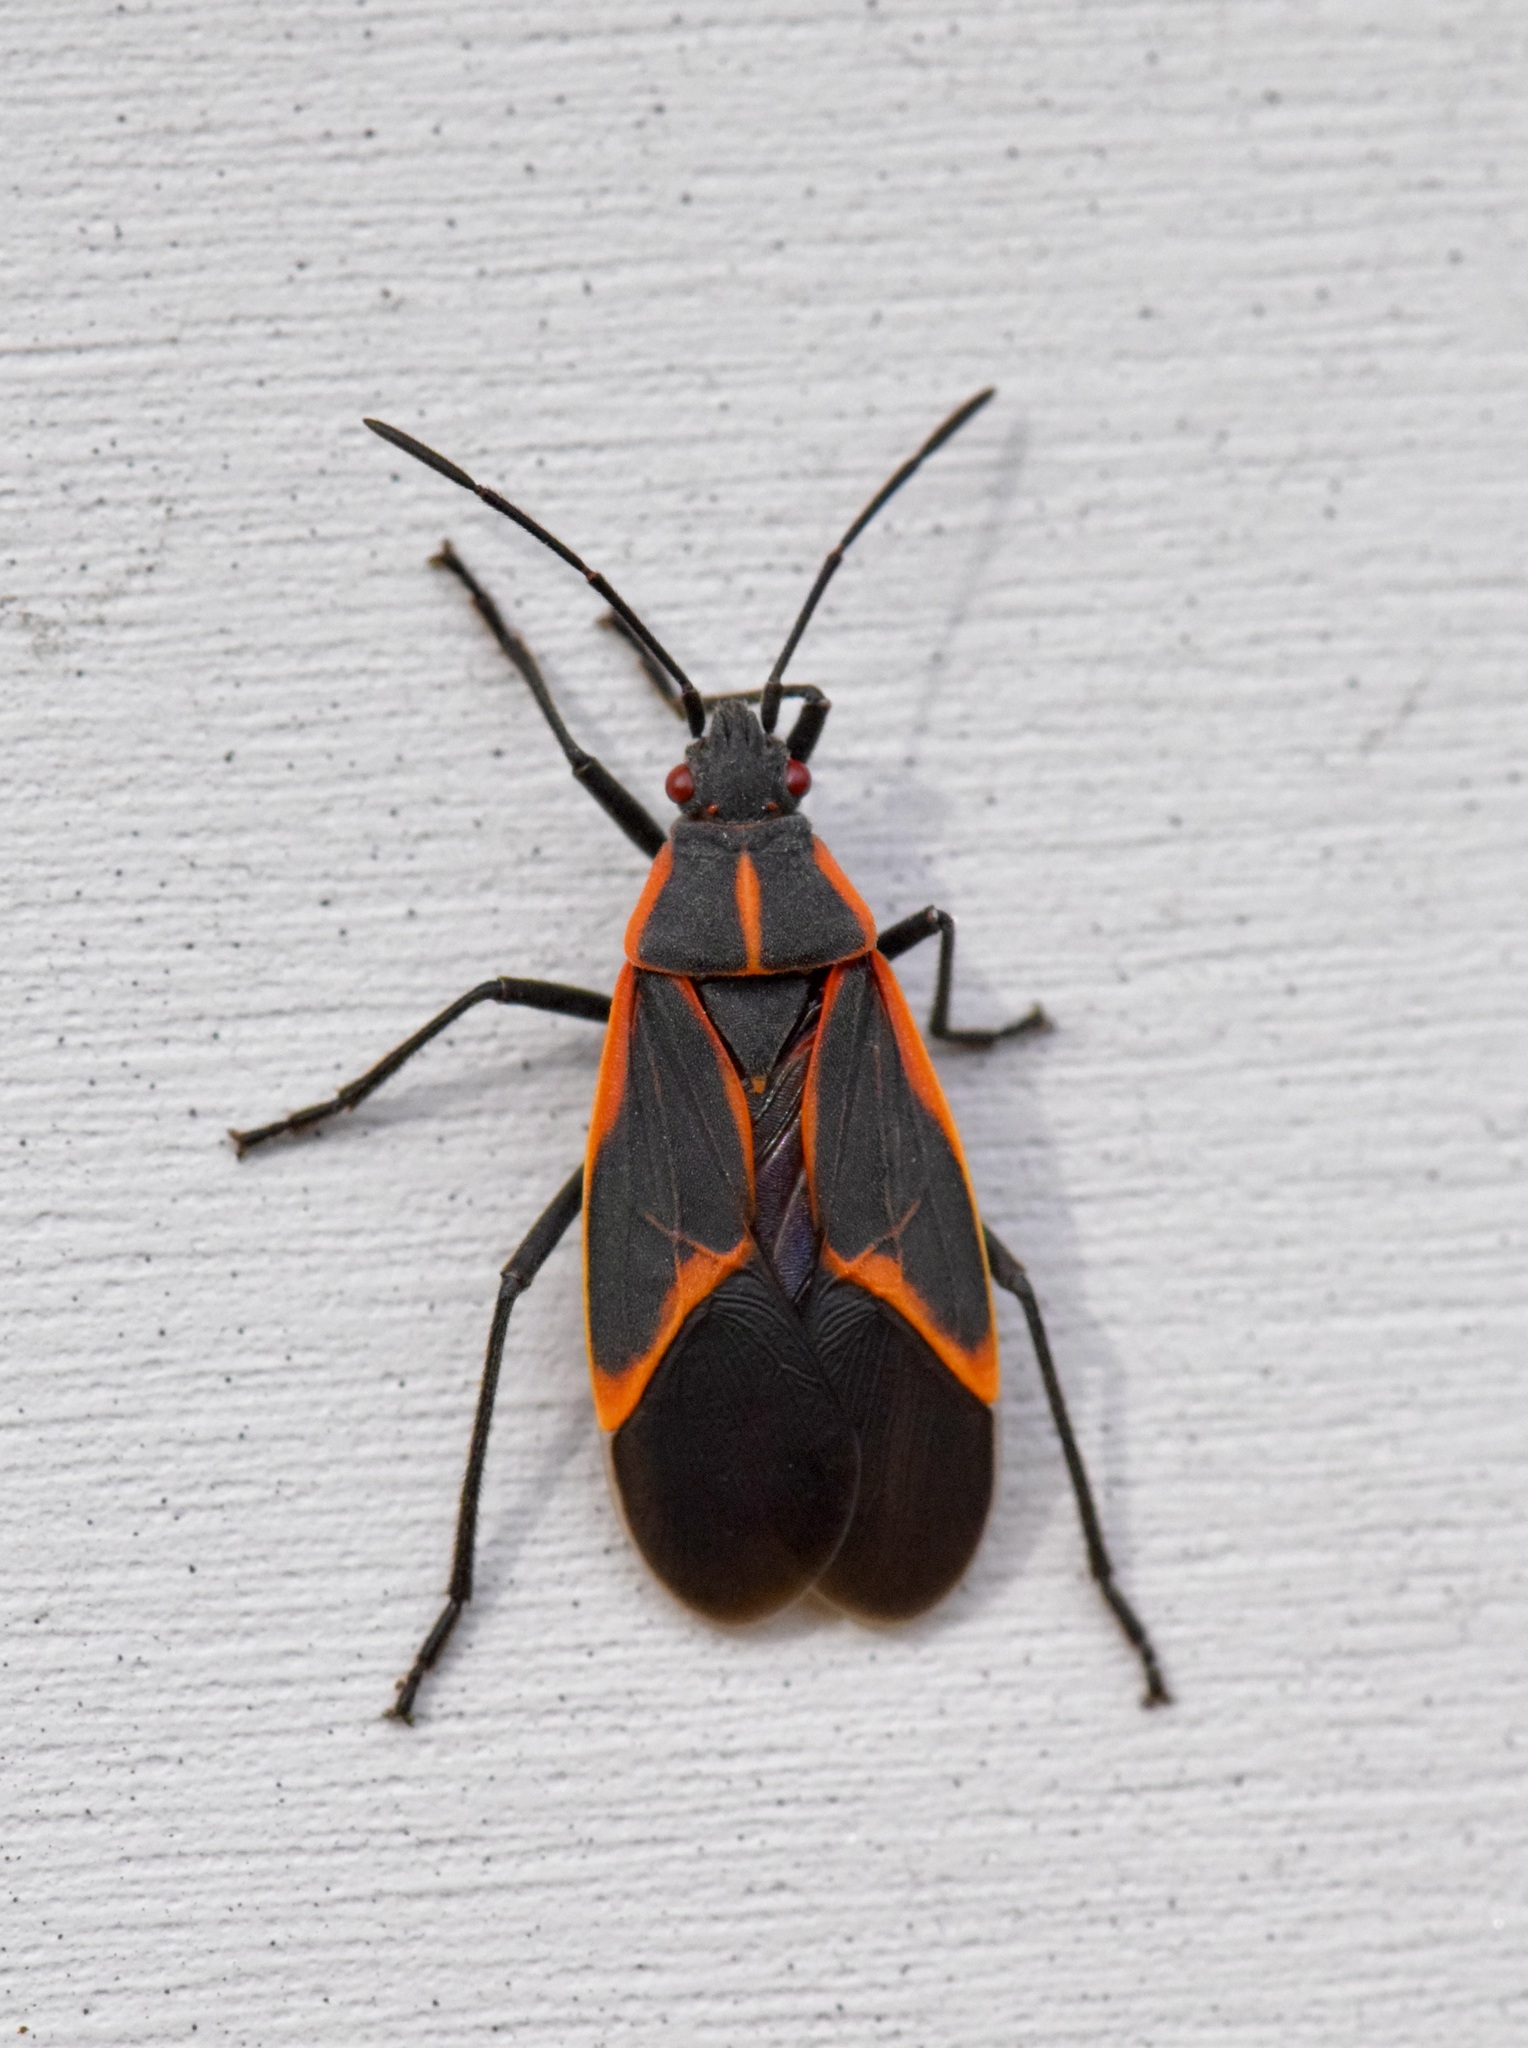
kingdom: Animalia
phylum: Arthropoda
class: Insecta
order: Hemiptera
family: Rhopalidae
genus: Boisea
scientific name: Boisea trivittata
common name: Boxelder bug
